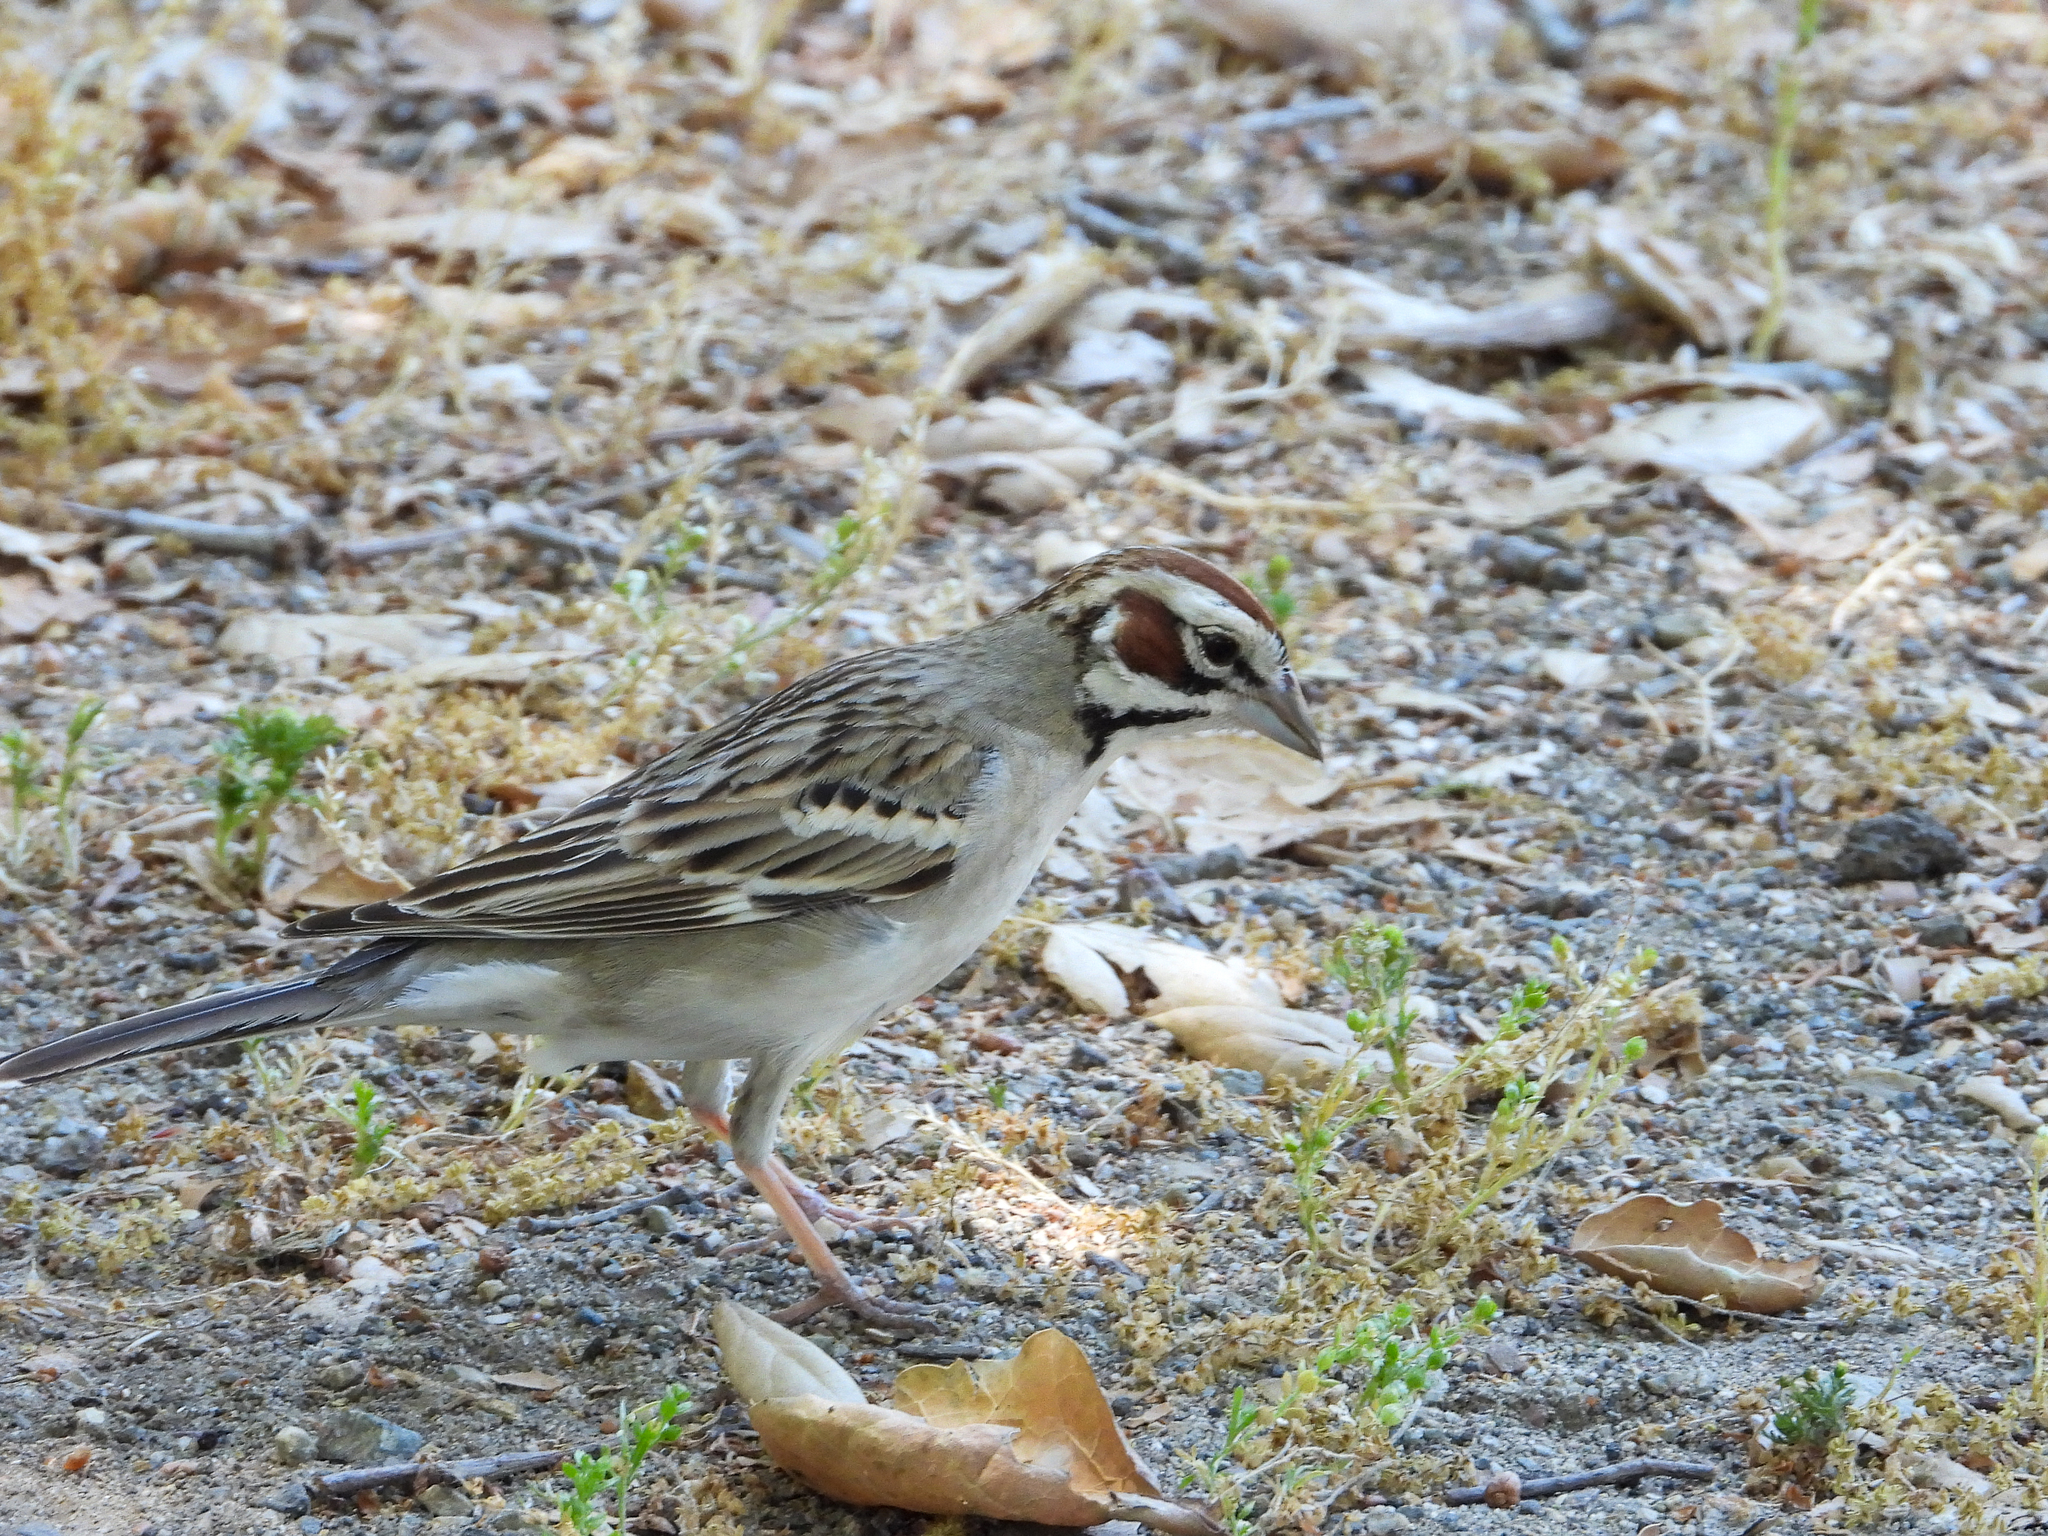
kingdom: Animalia
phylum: Chordata
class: Aves
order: Passeriformes
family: Passerellidae
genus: Chondestes
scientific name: Chondestes grammacus
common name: Lark sparrow
